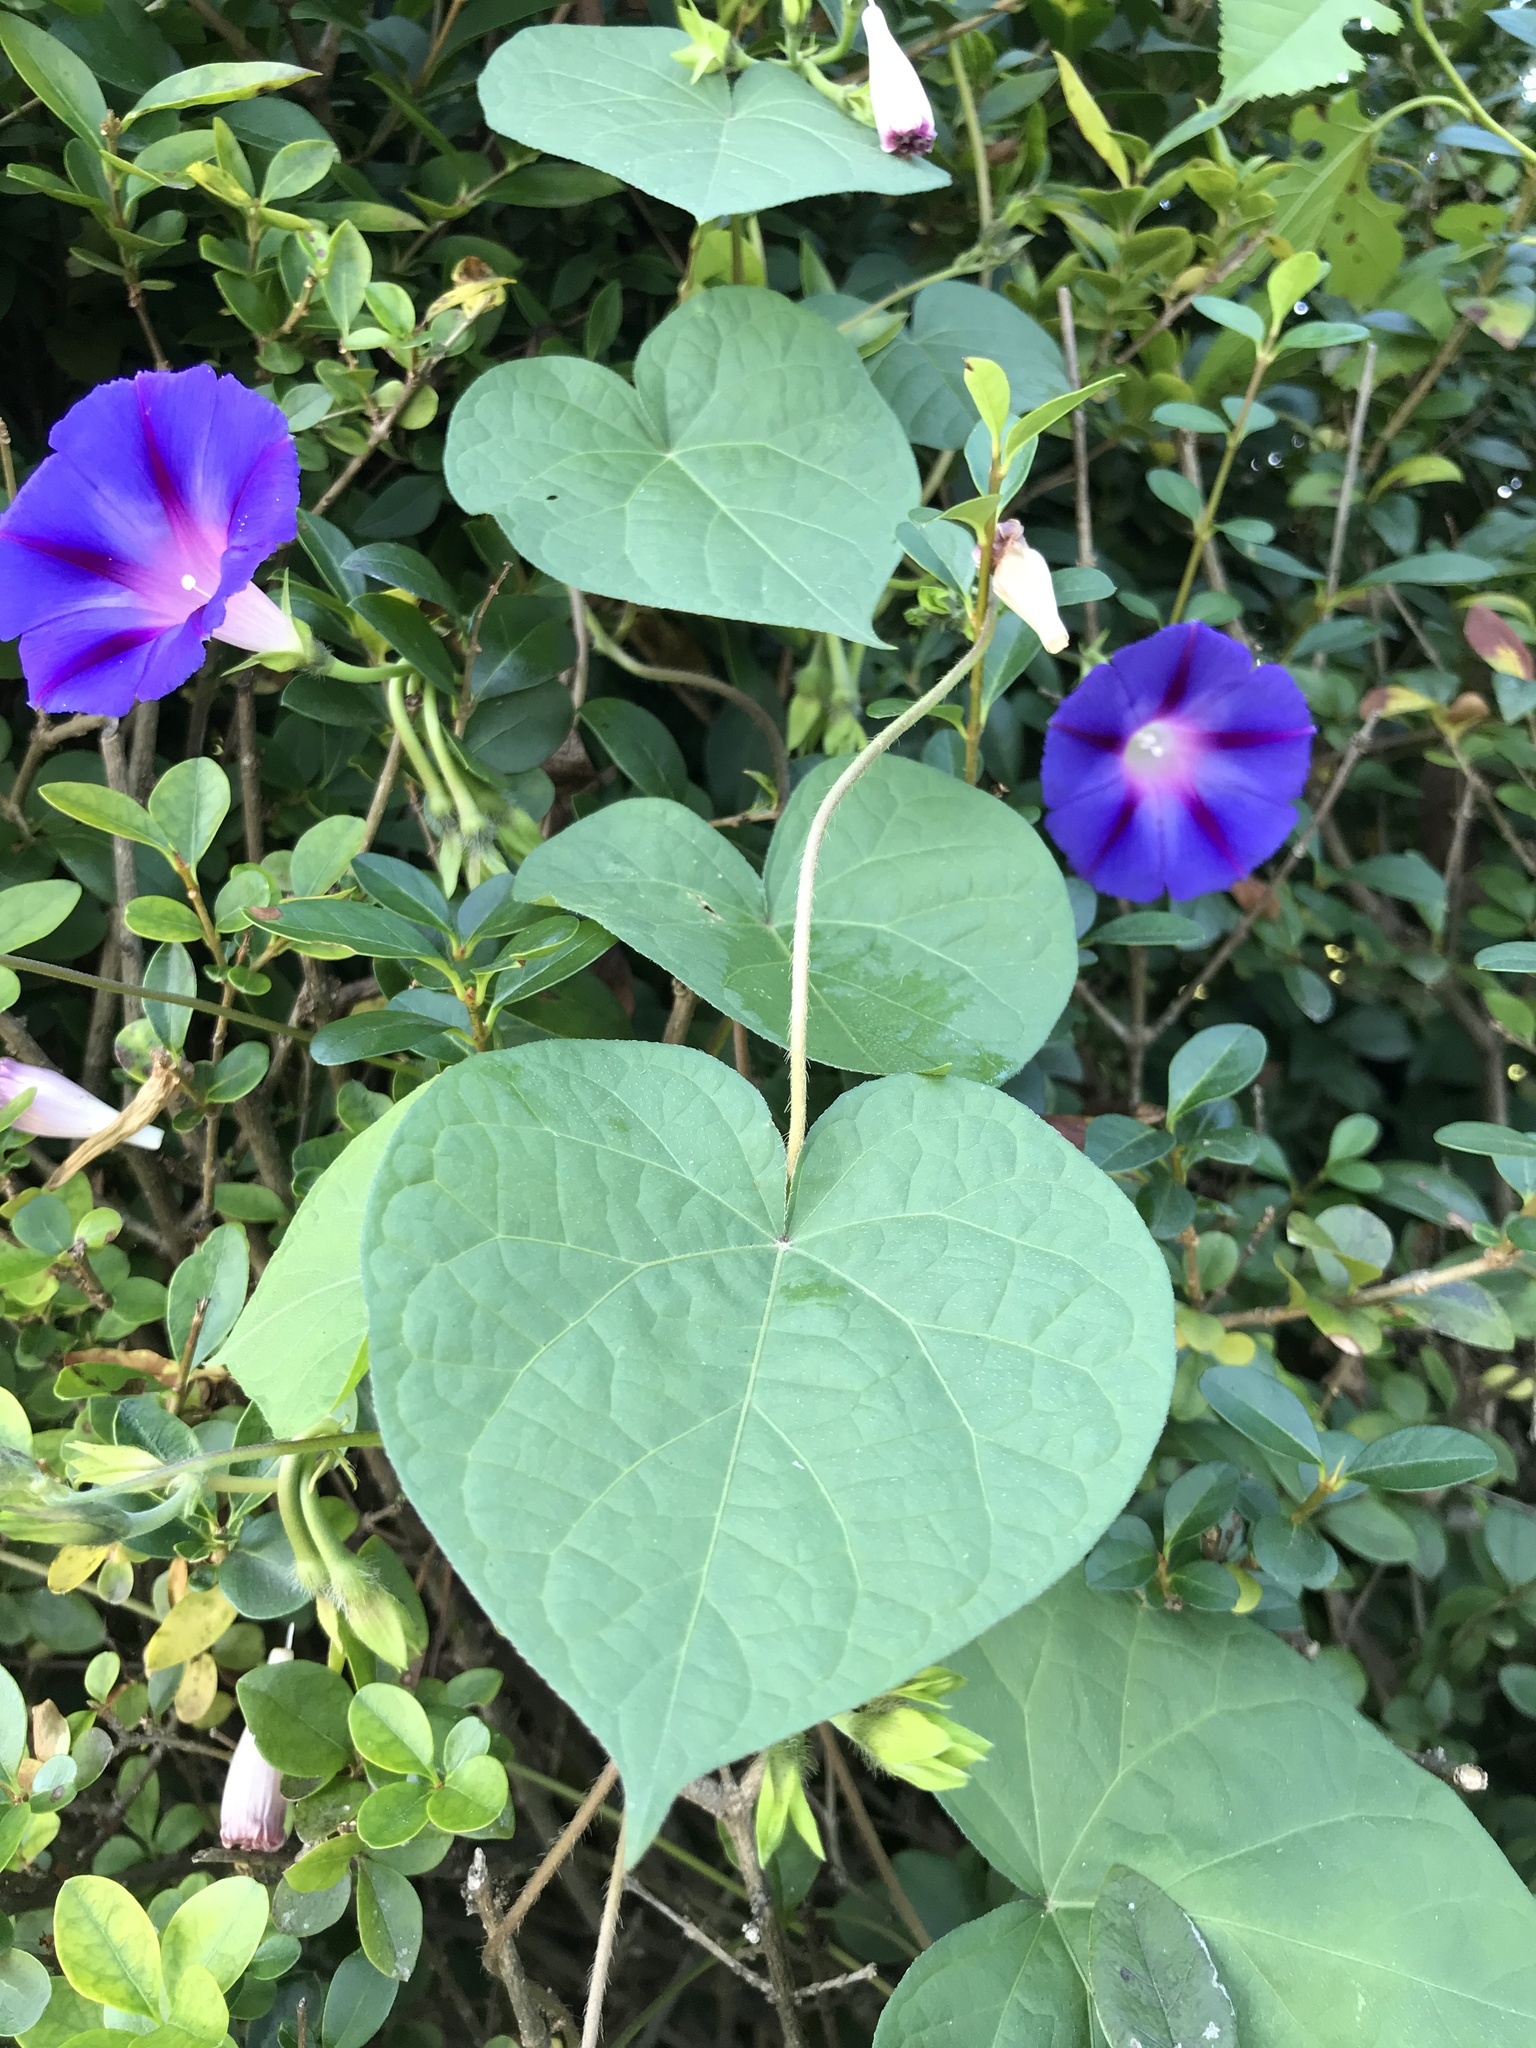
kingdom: Plantae
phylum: Tracheophyta
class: Magnoliopsida
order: Solanales
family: Convolvulaceae
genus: Ipomoea
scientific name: Ipomoea purpurea
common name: Common morning-glory
